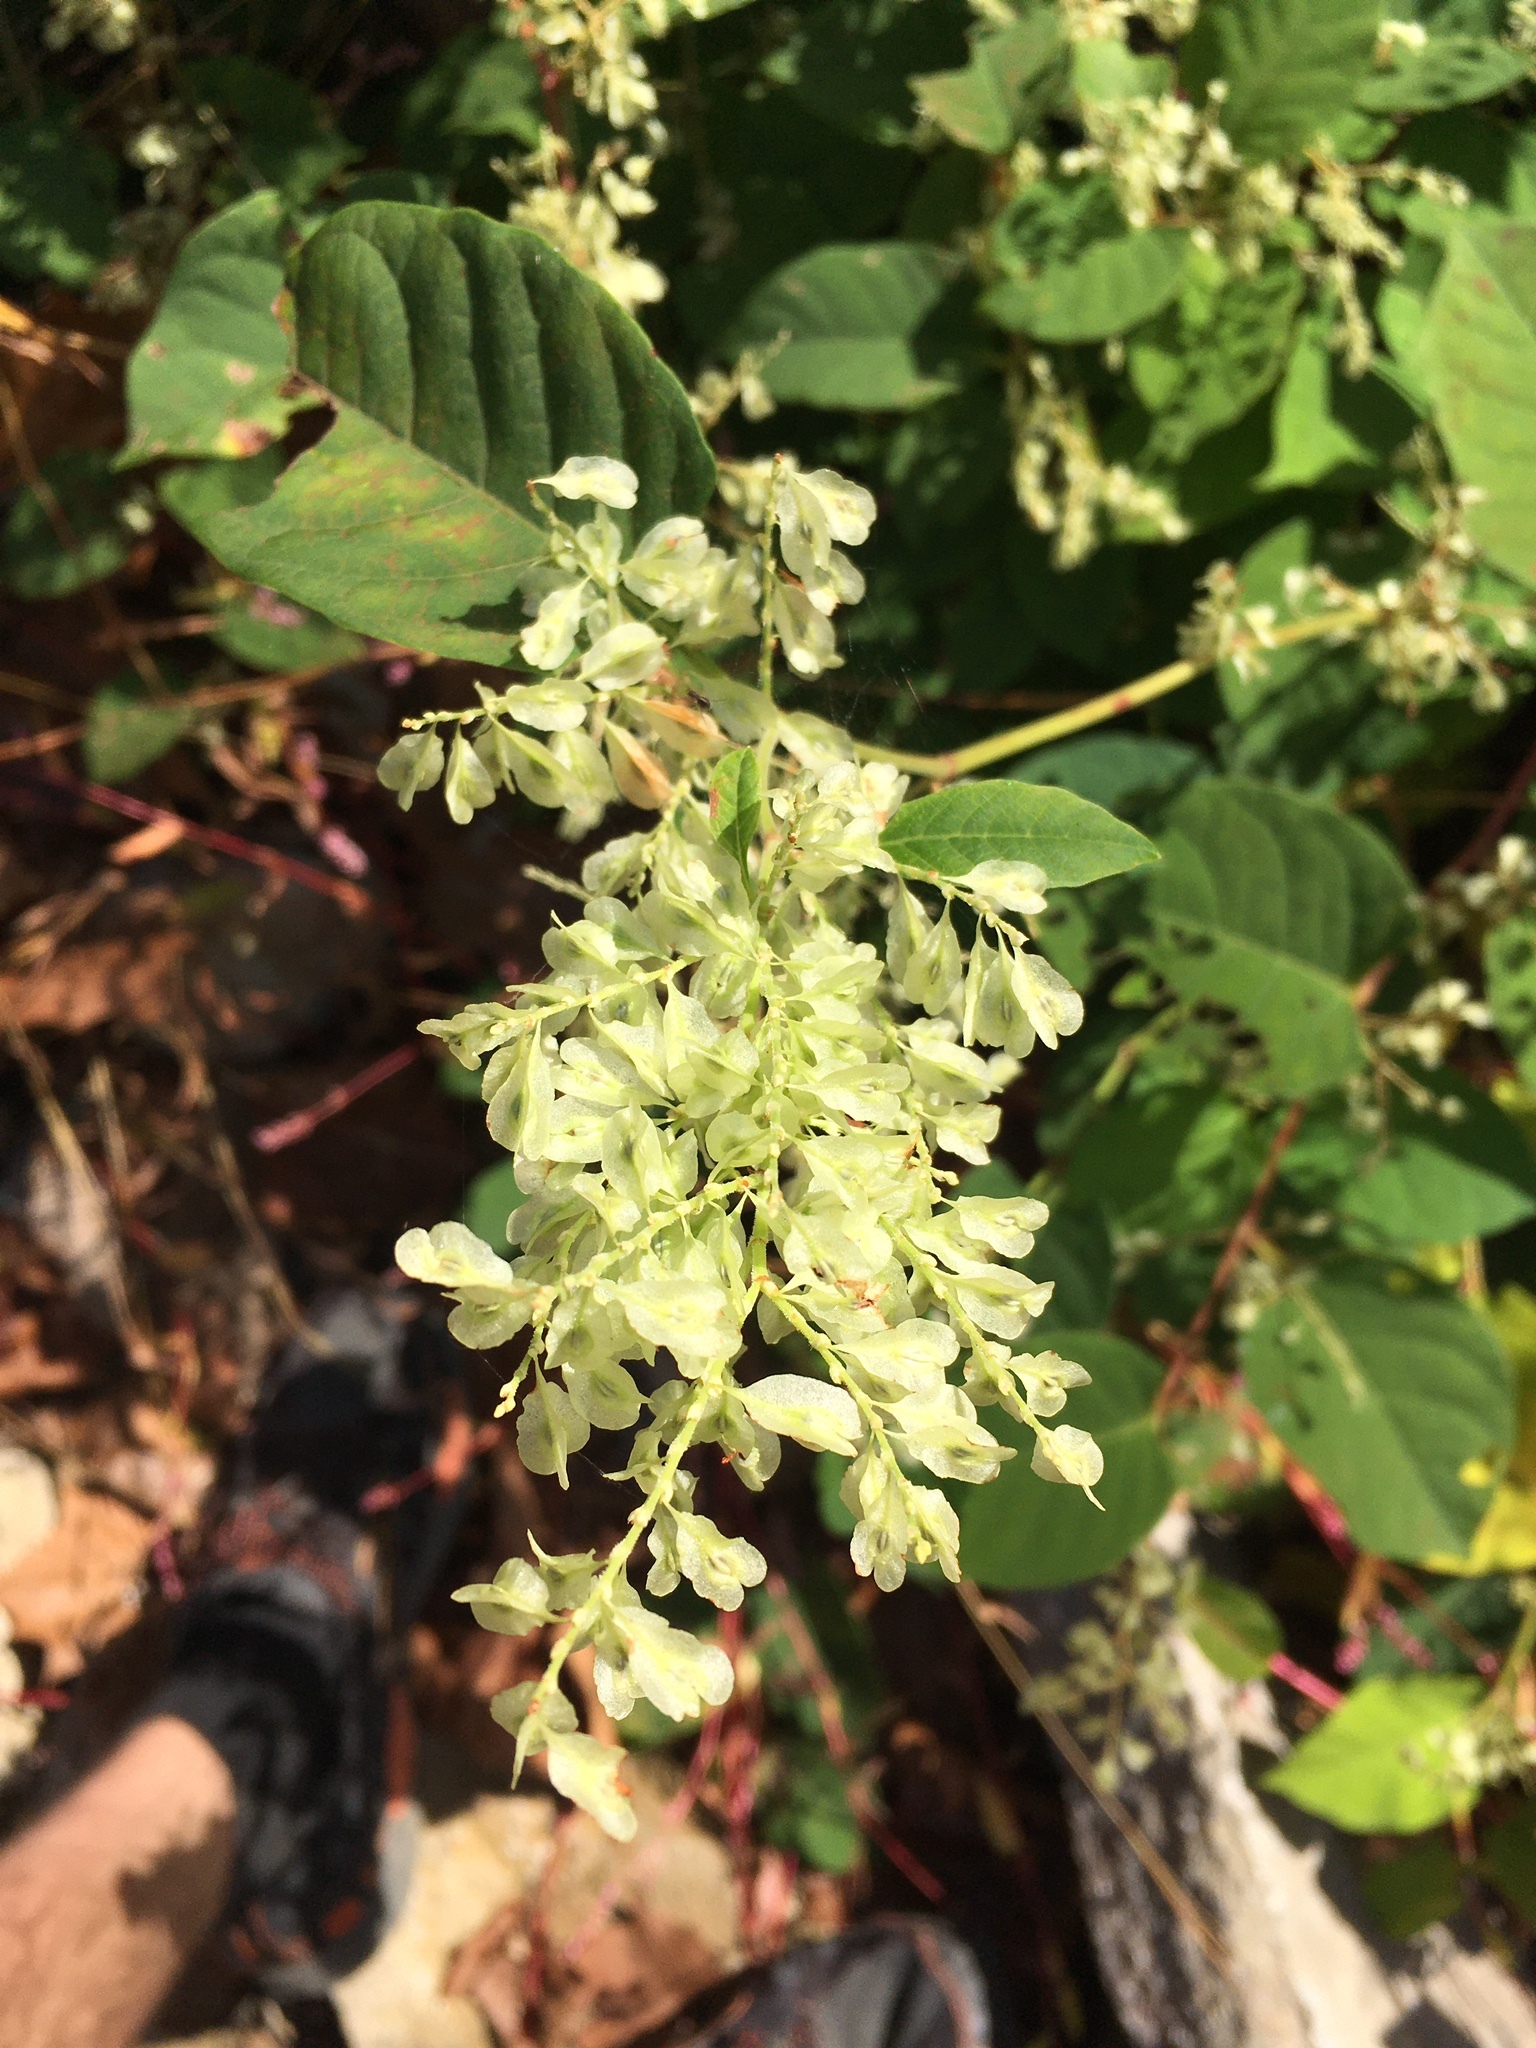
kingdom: Plantae
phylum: Tracheophyta
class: Magnoliopsida
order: Caryophyllales
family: Polygonaceae
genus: Reynoutria
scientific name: Reynoutria japonica
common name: Japanese knotweed
